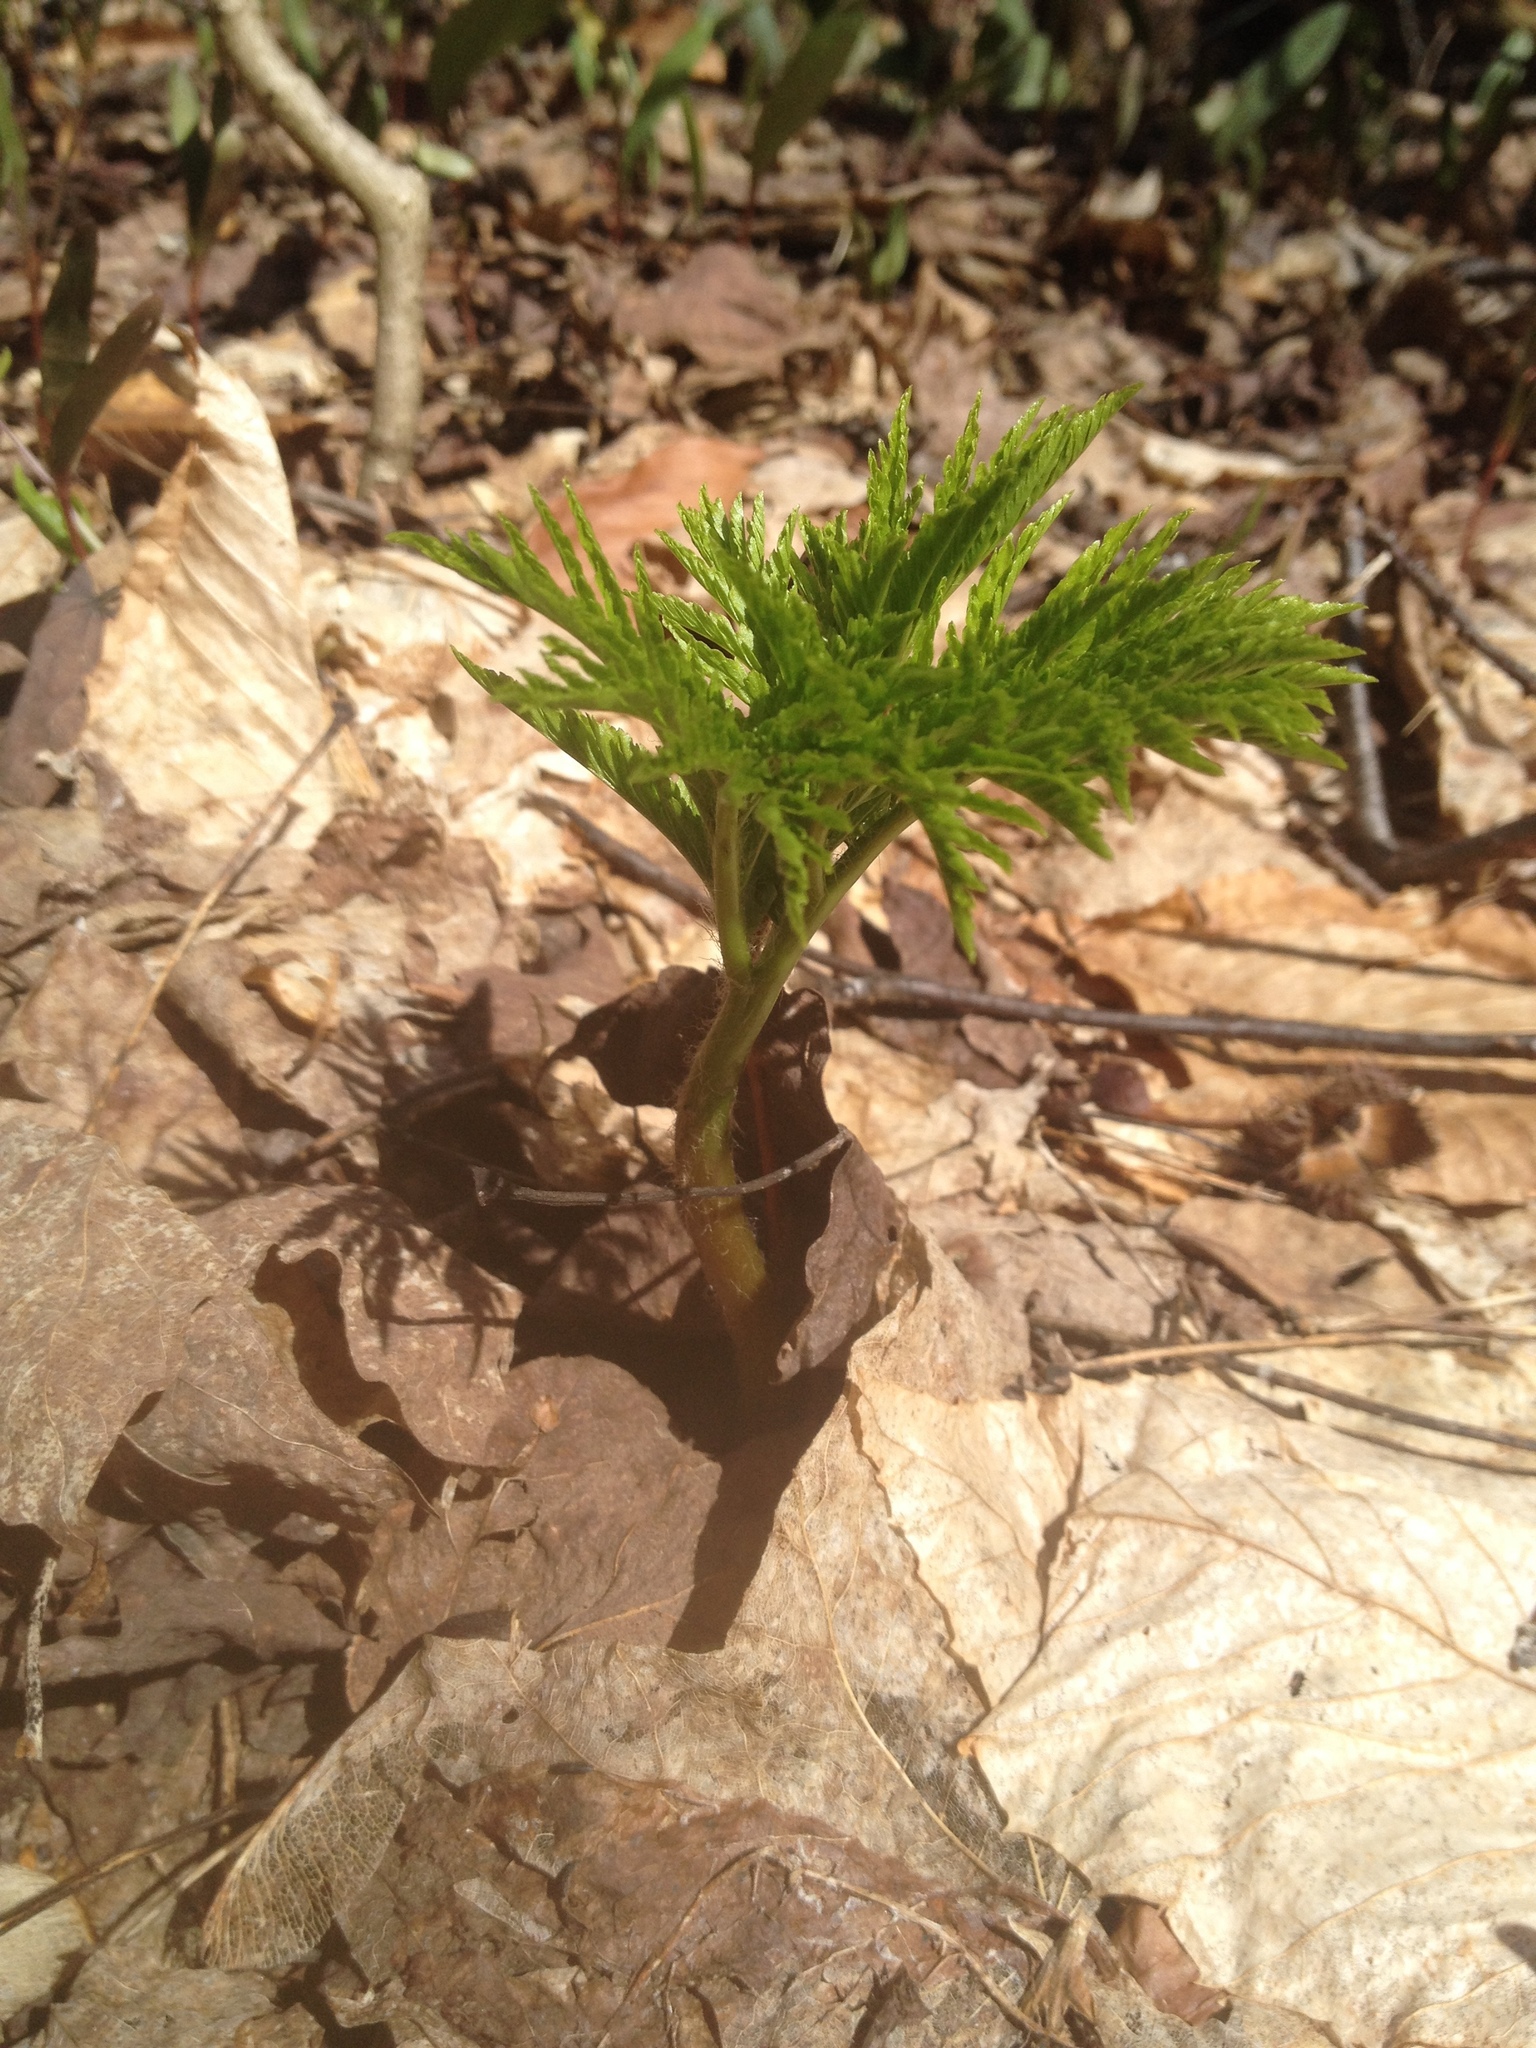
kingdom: Plantae
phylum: Tracheophyta
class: Polypodiopsida
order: Ophioglossales
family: Ophioglossaceae
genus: Botrypus
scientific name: Botrypus virginianus
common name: Common grapefern
